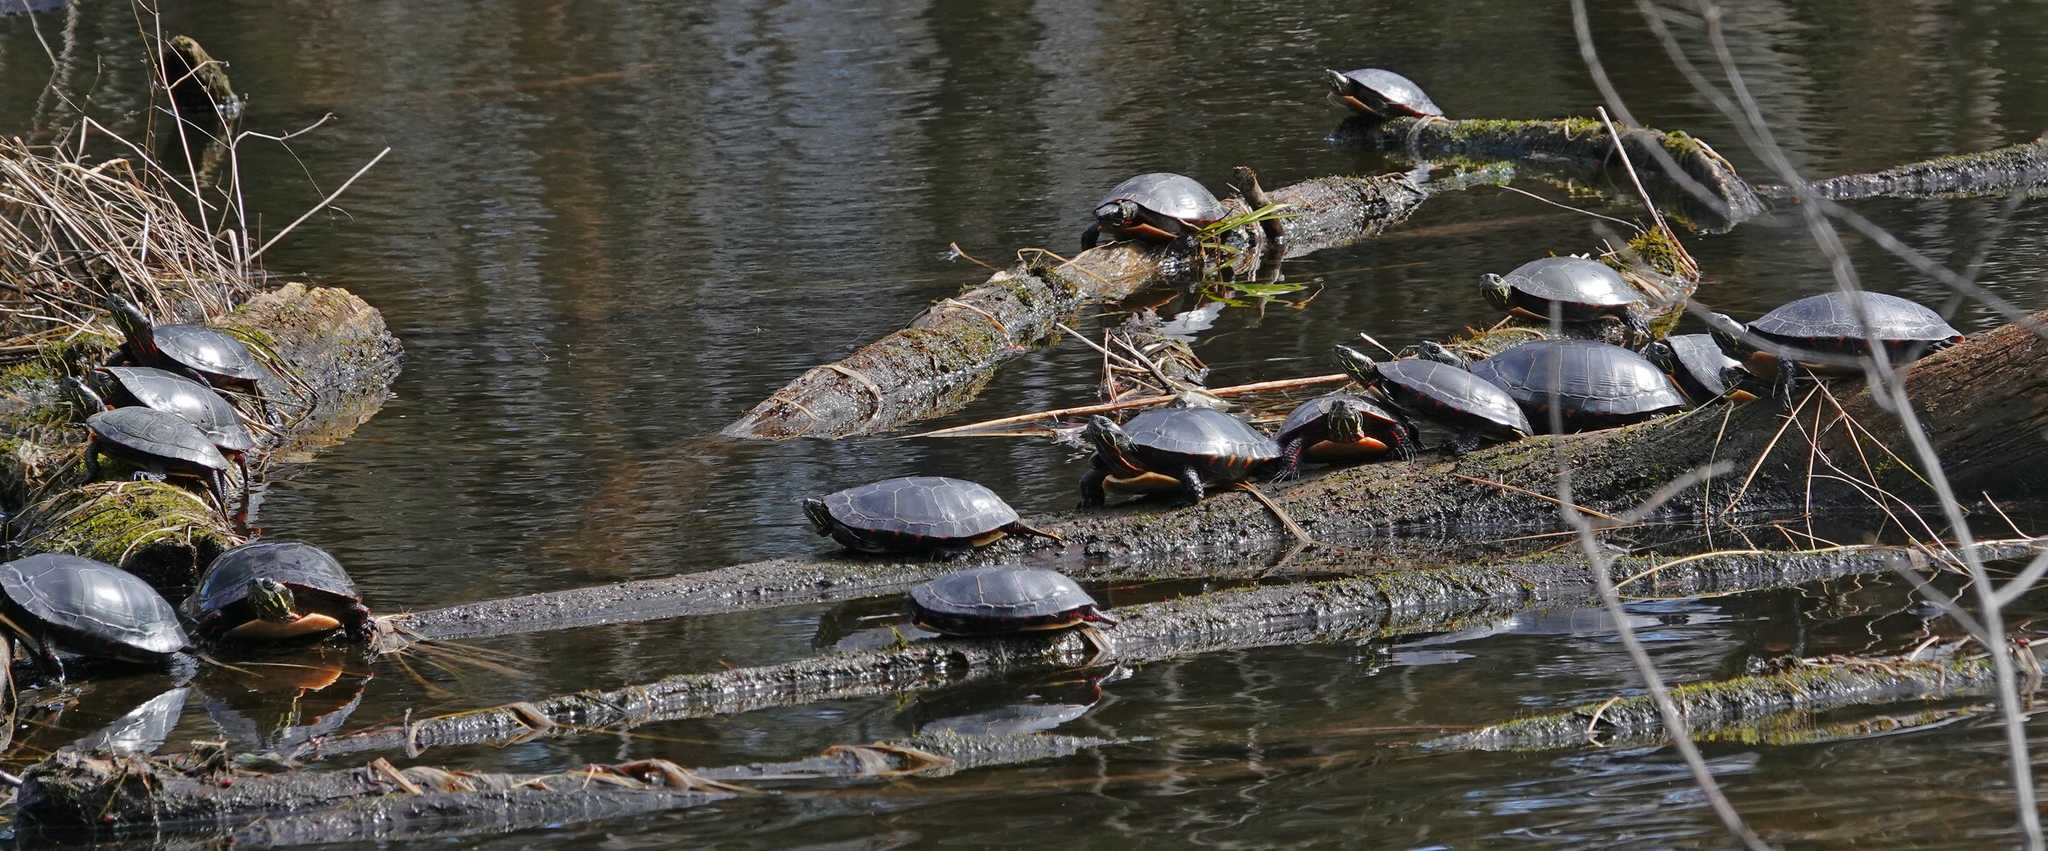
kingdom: Animalia
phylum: Chordata
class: Testudines
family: Emydidae
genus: Chrysemys
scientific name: Chrysemys picta
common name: Painted turtle
